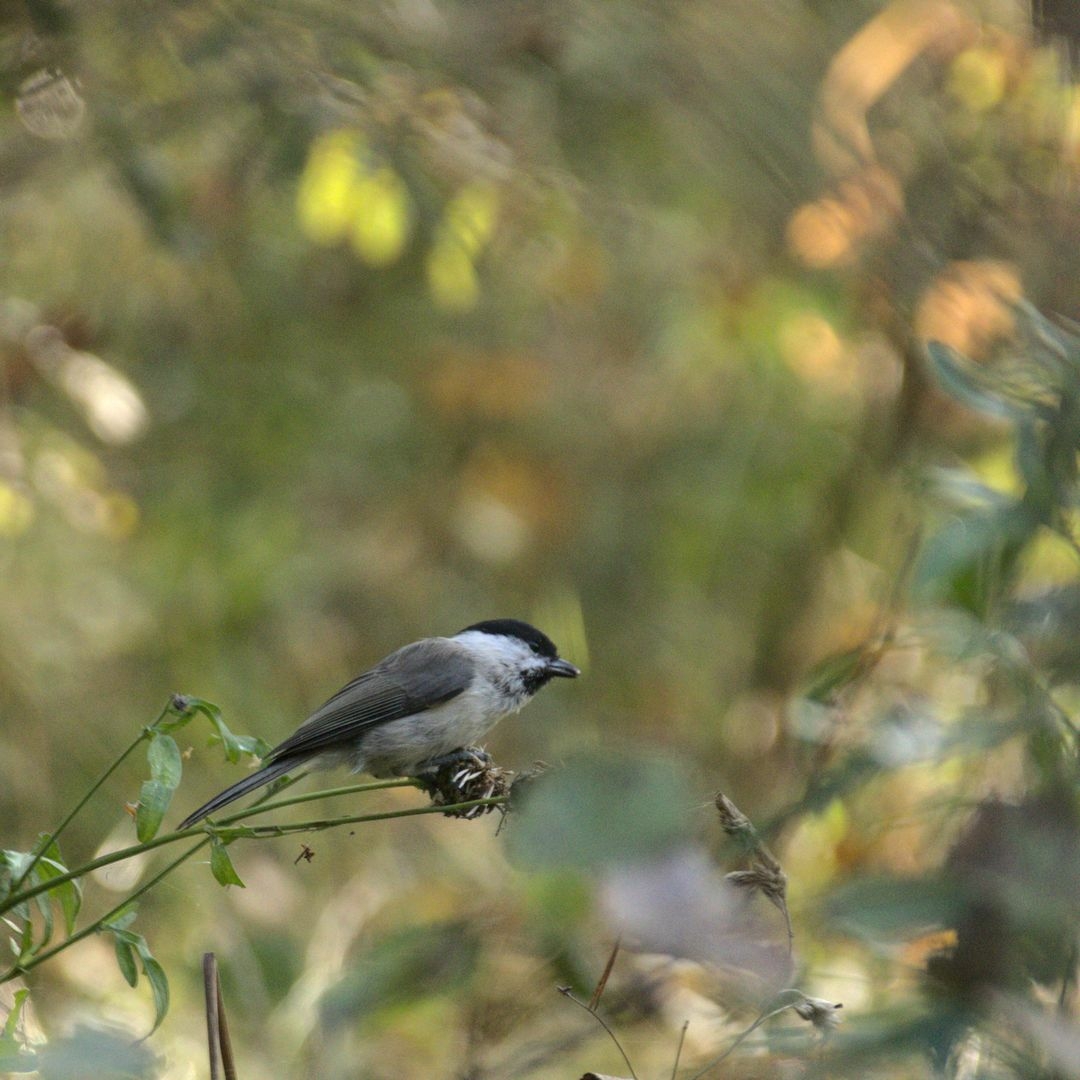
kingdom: Animalia
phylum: Chordata
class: Aves
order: Passeriformes
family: Paridae
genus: Poecile
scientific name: Poecile montanus
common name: Willow tit
